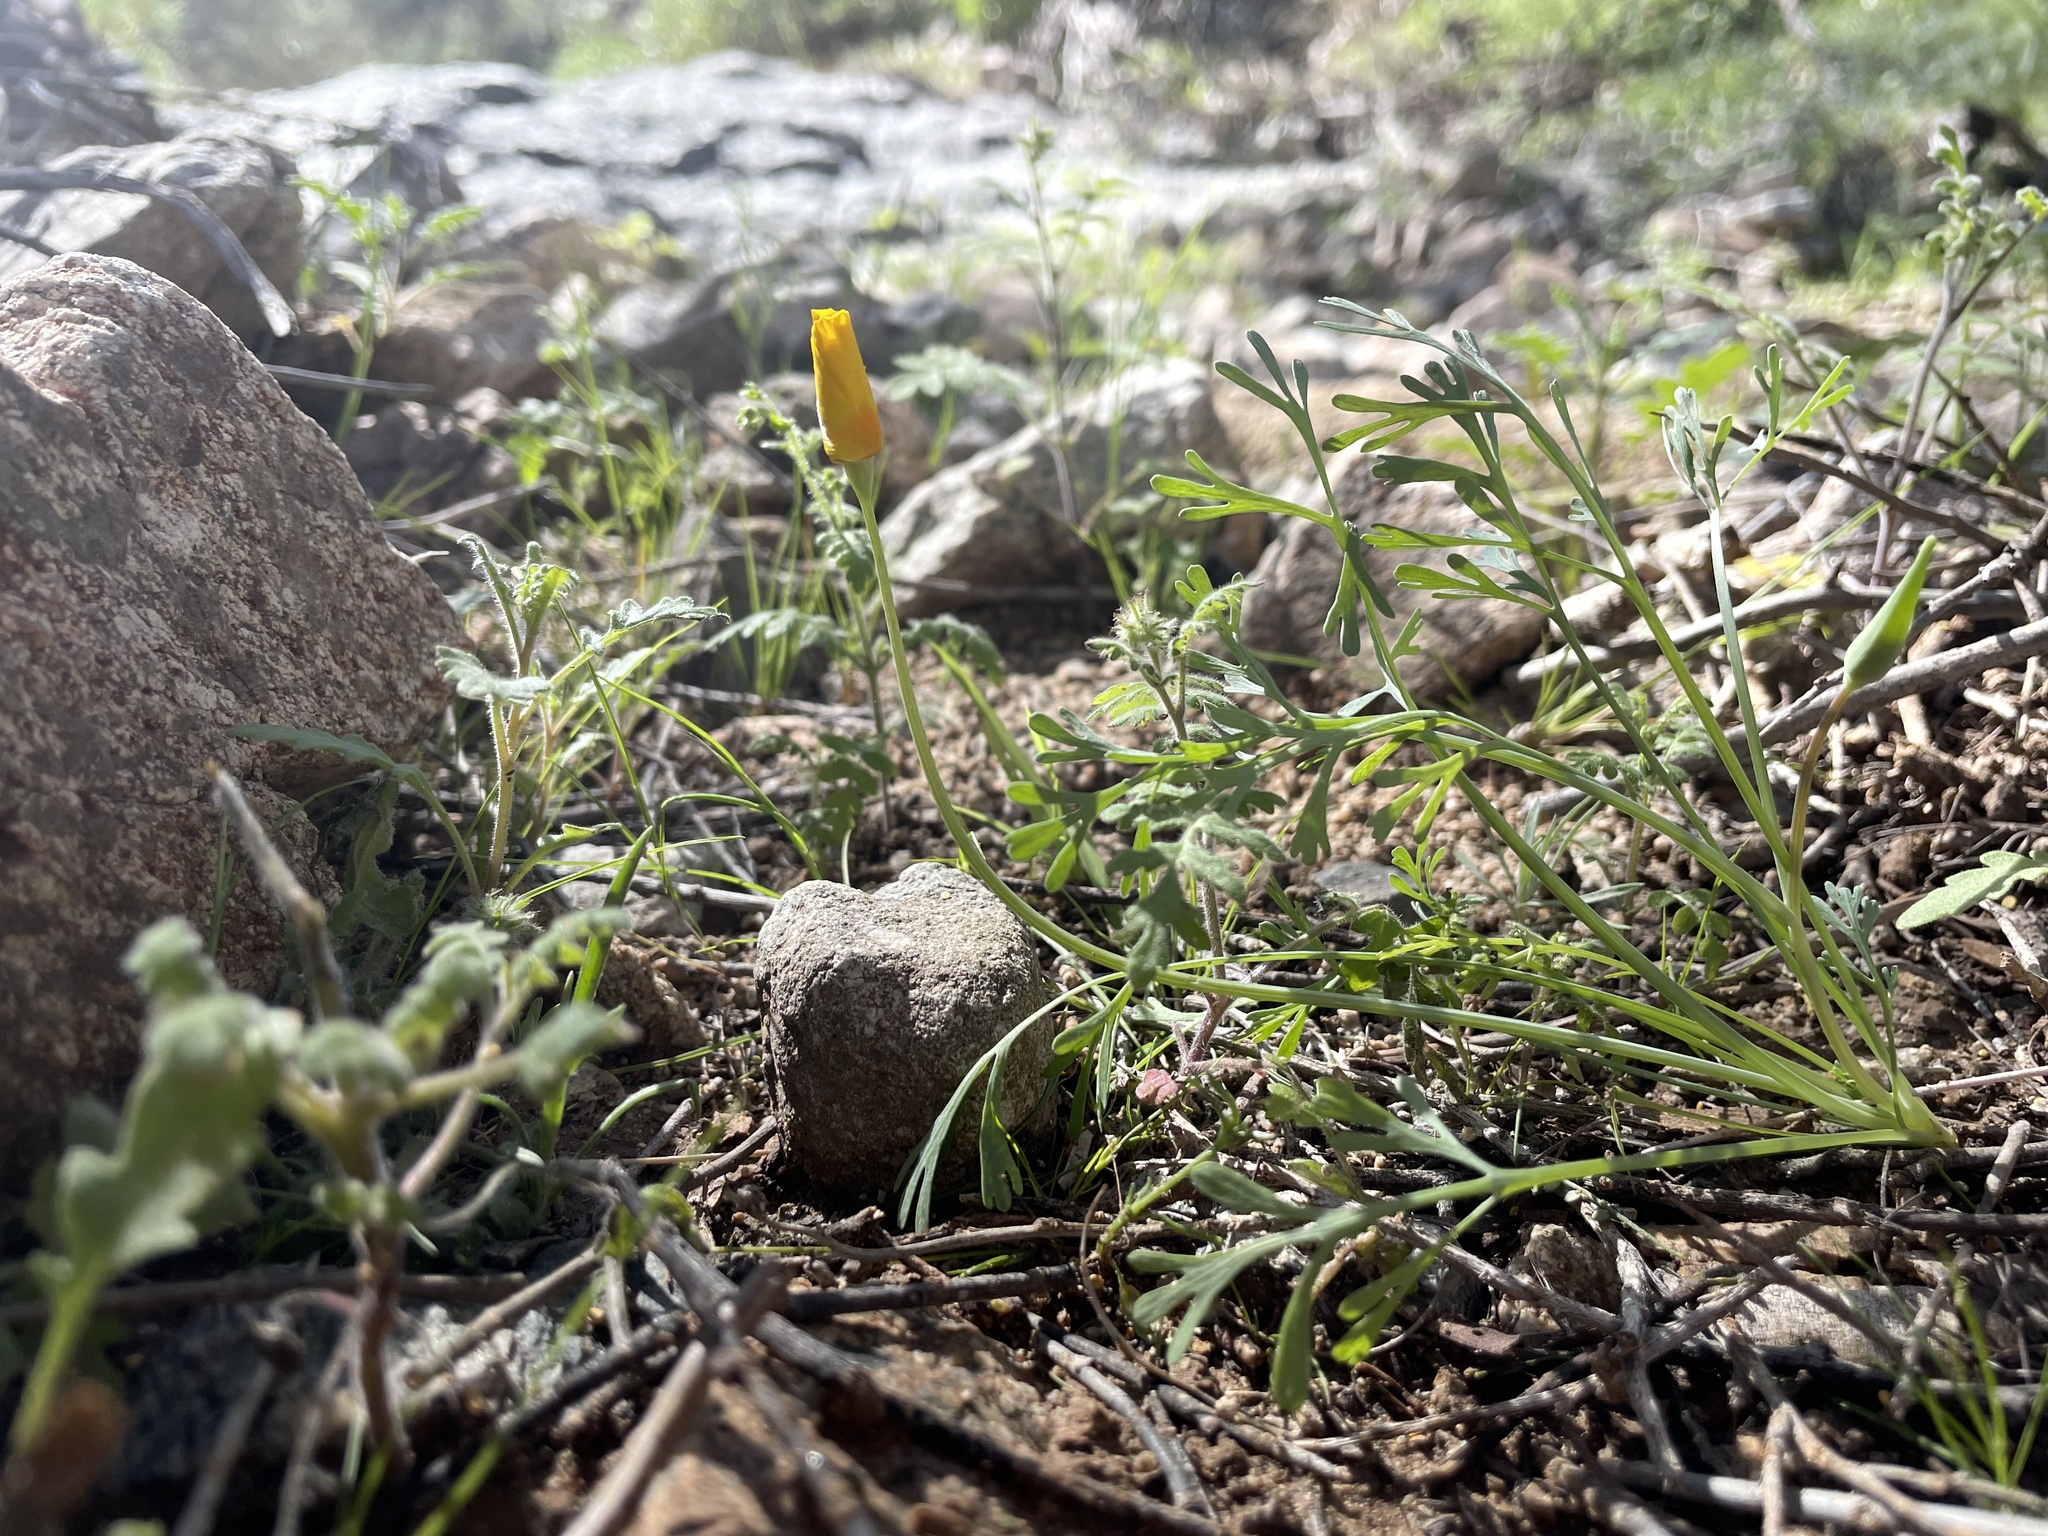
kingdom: Plantae
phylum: Tracheophyta
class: Magnoliopsida
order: Ranunculales
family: Papaveraceae
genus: Eschscholzia
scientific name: Eschscholzia californica
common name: California poppy
